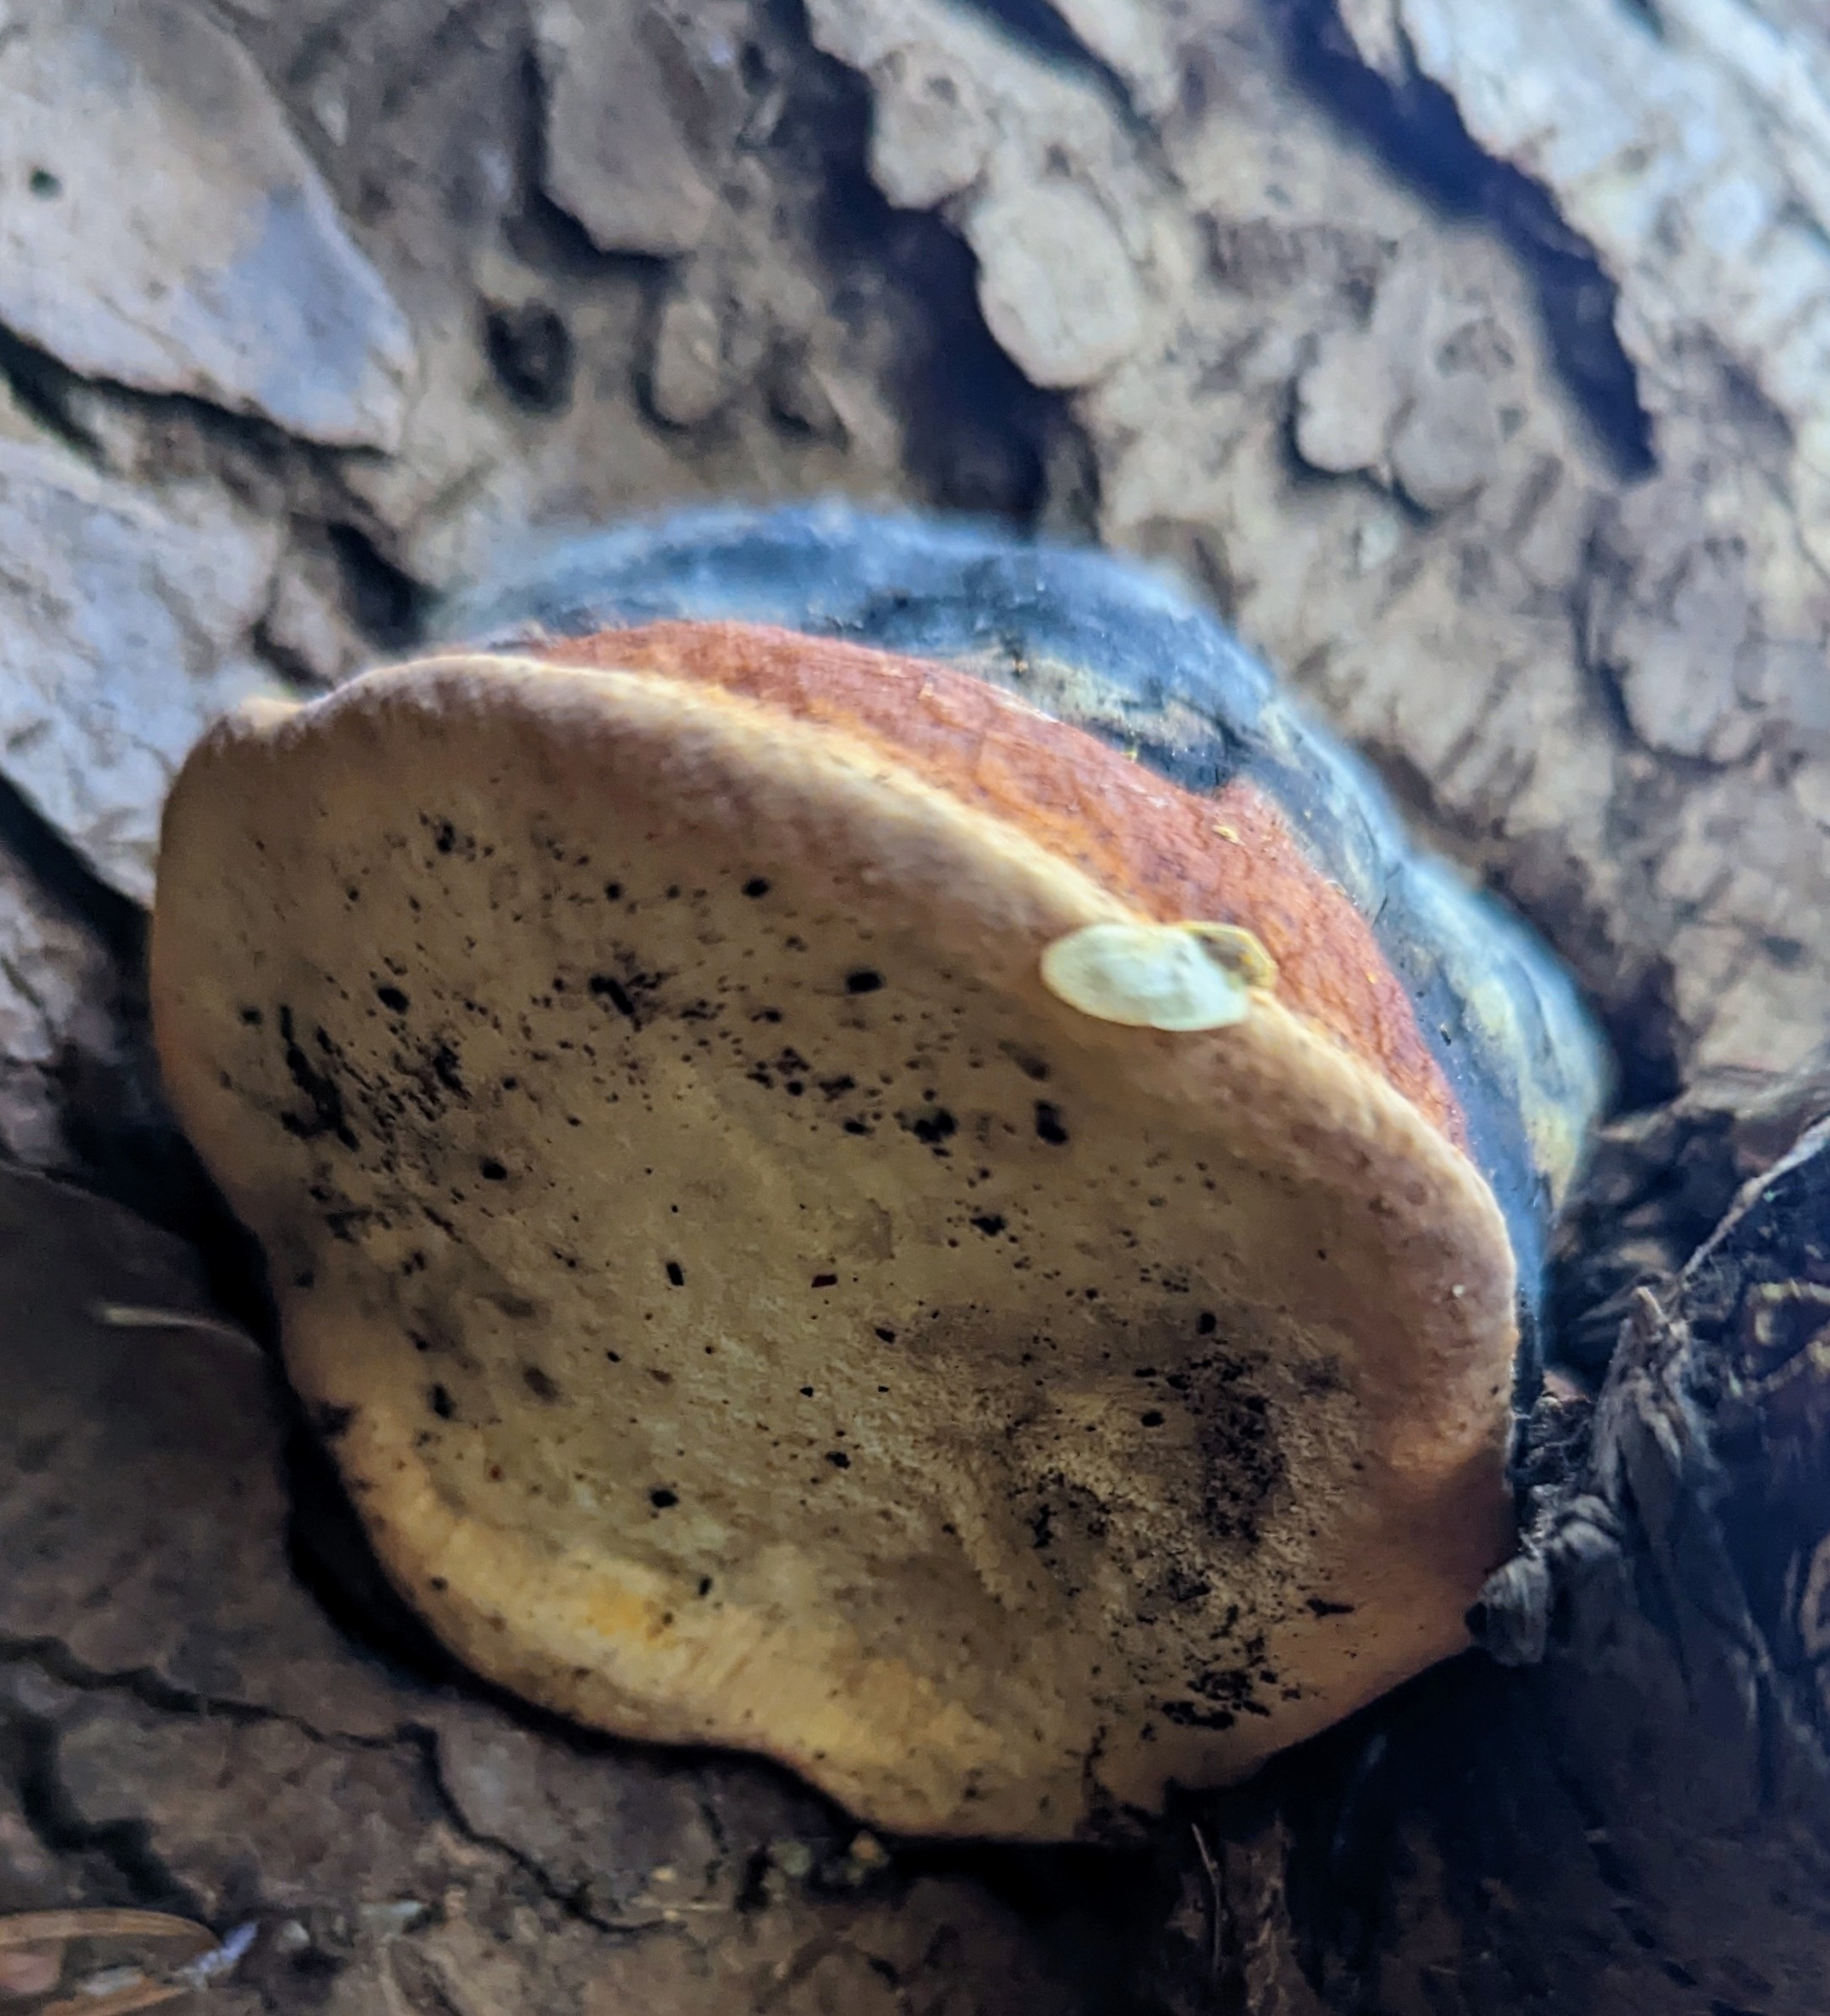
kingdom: Fungi
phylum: Basidiomycota
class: Agaricomycetes
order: Polyporales
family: Fomitopsidaceae
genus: Fomitopsis
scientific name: Fomitopsis mounceae
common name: Northern red belt
